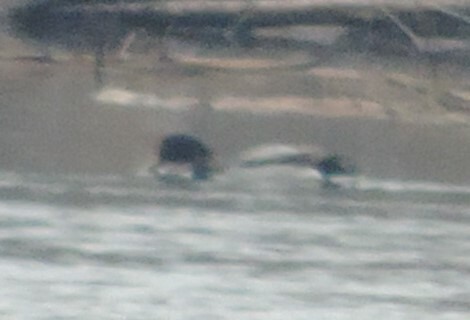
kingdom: Animalia
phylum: Chordata
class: Aves
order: Anseriformes
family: Anatidae
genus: Anas
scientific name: Anas platyrhynchos
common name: Mallard
